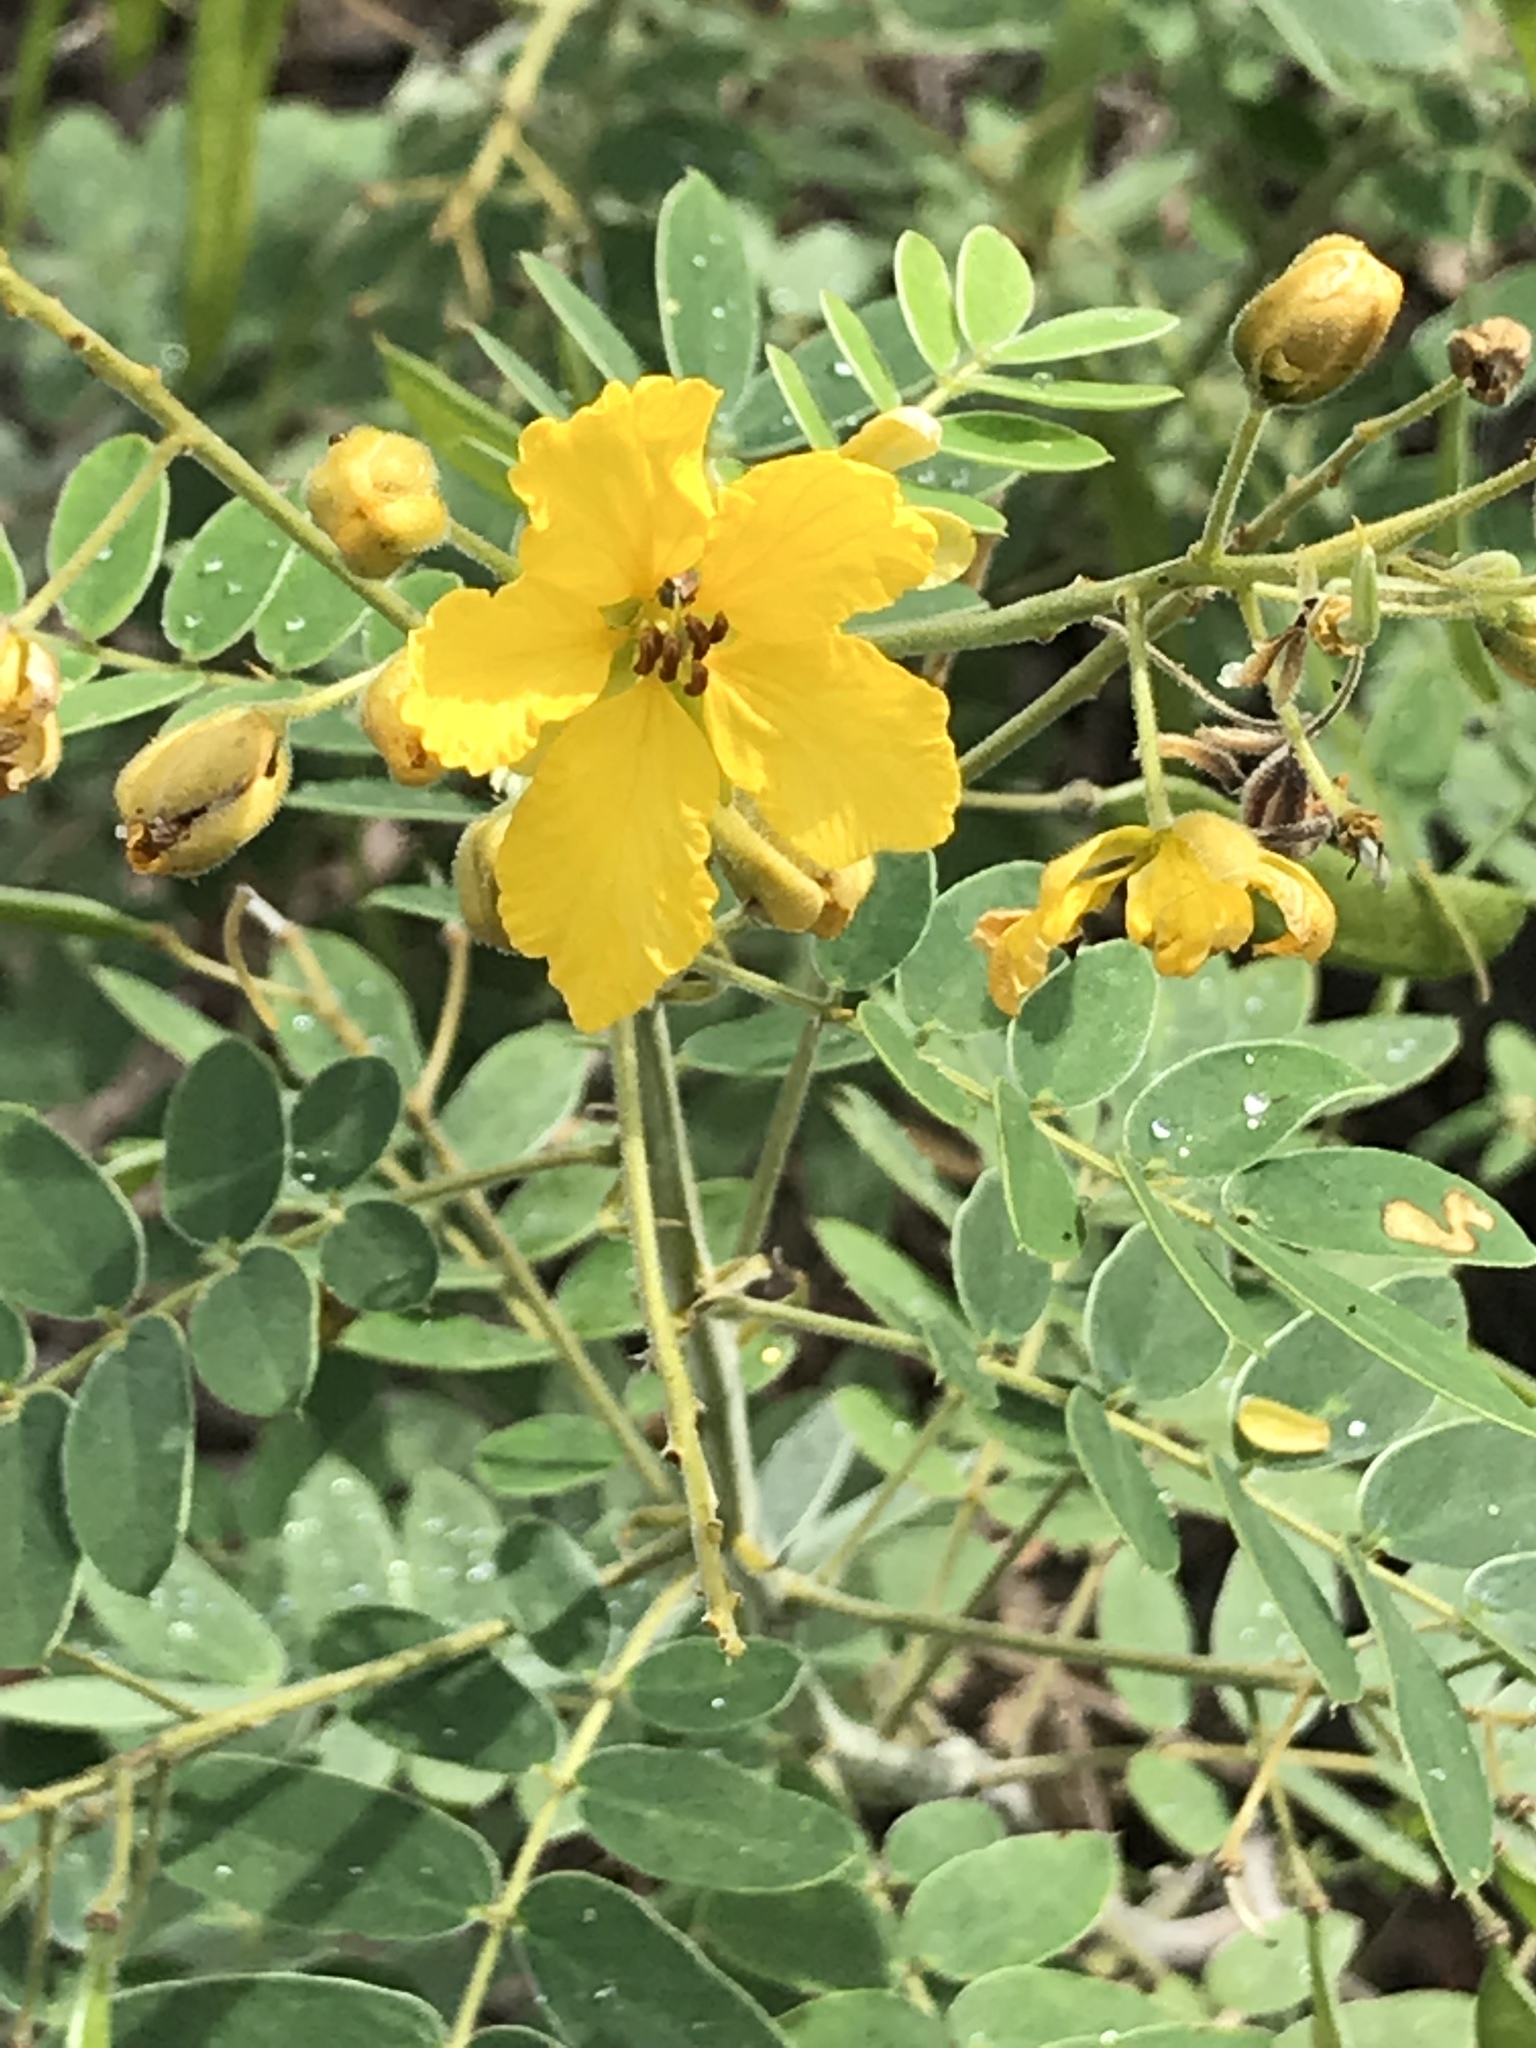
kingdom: Plantae
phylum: Tracheophyta
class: Magnoliopsida
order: Fabales
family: Fabaceae
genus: Senna
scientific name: Senna lindheimeriana
